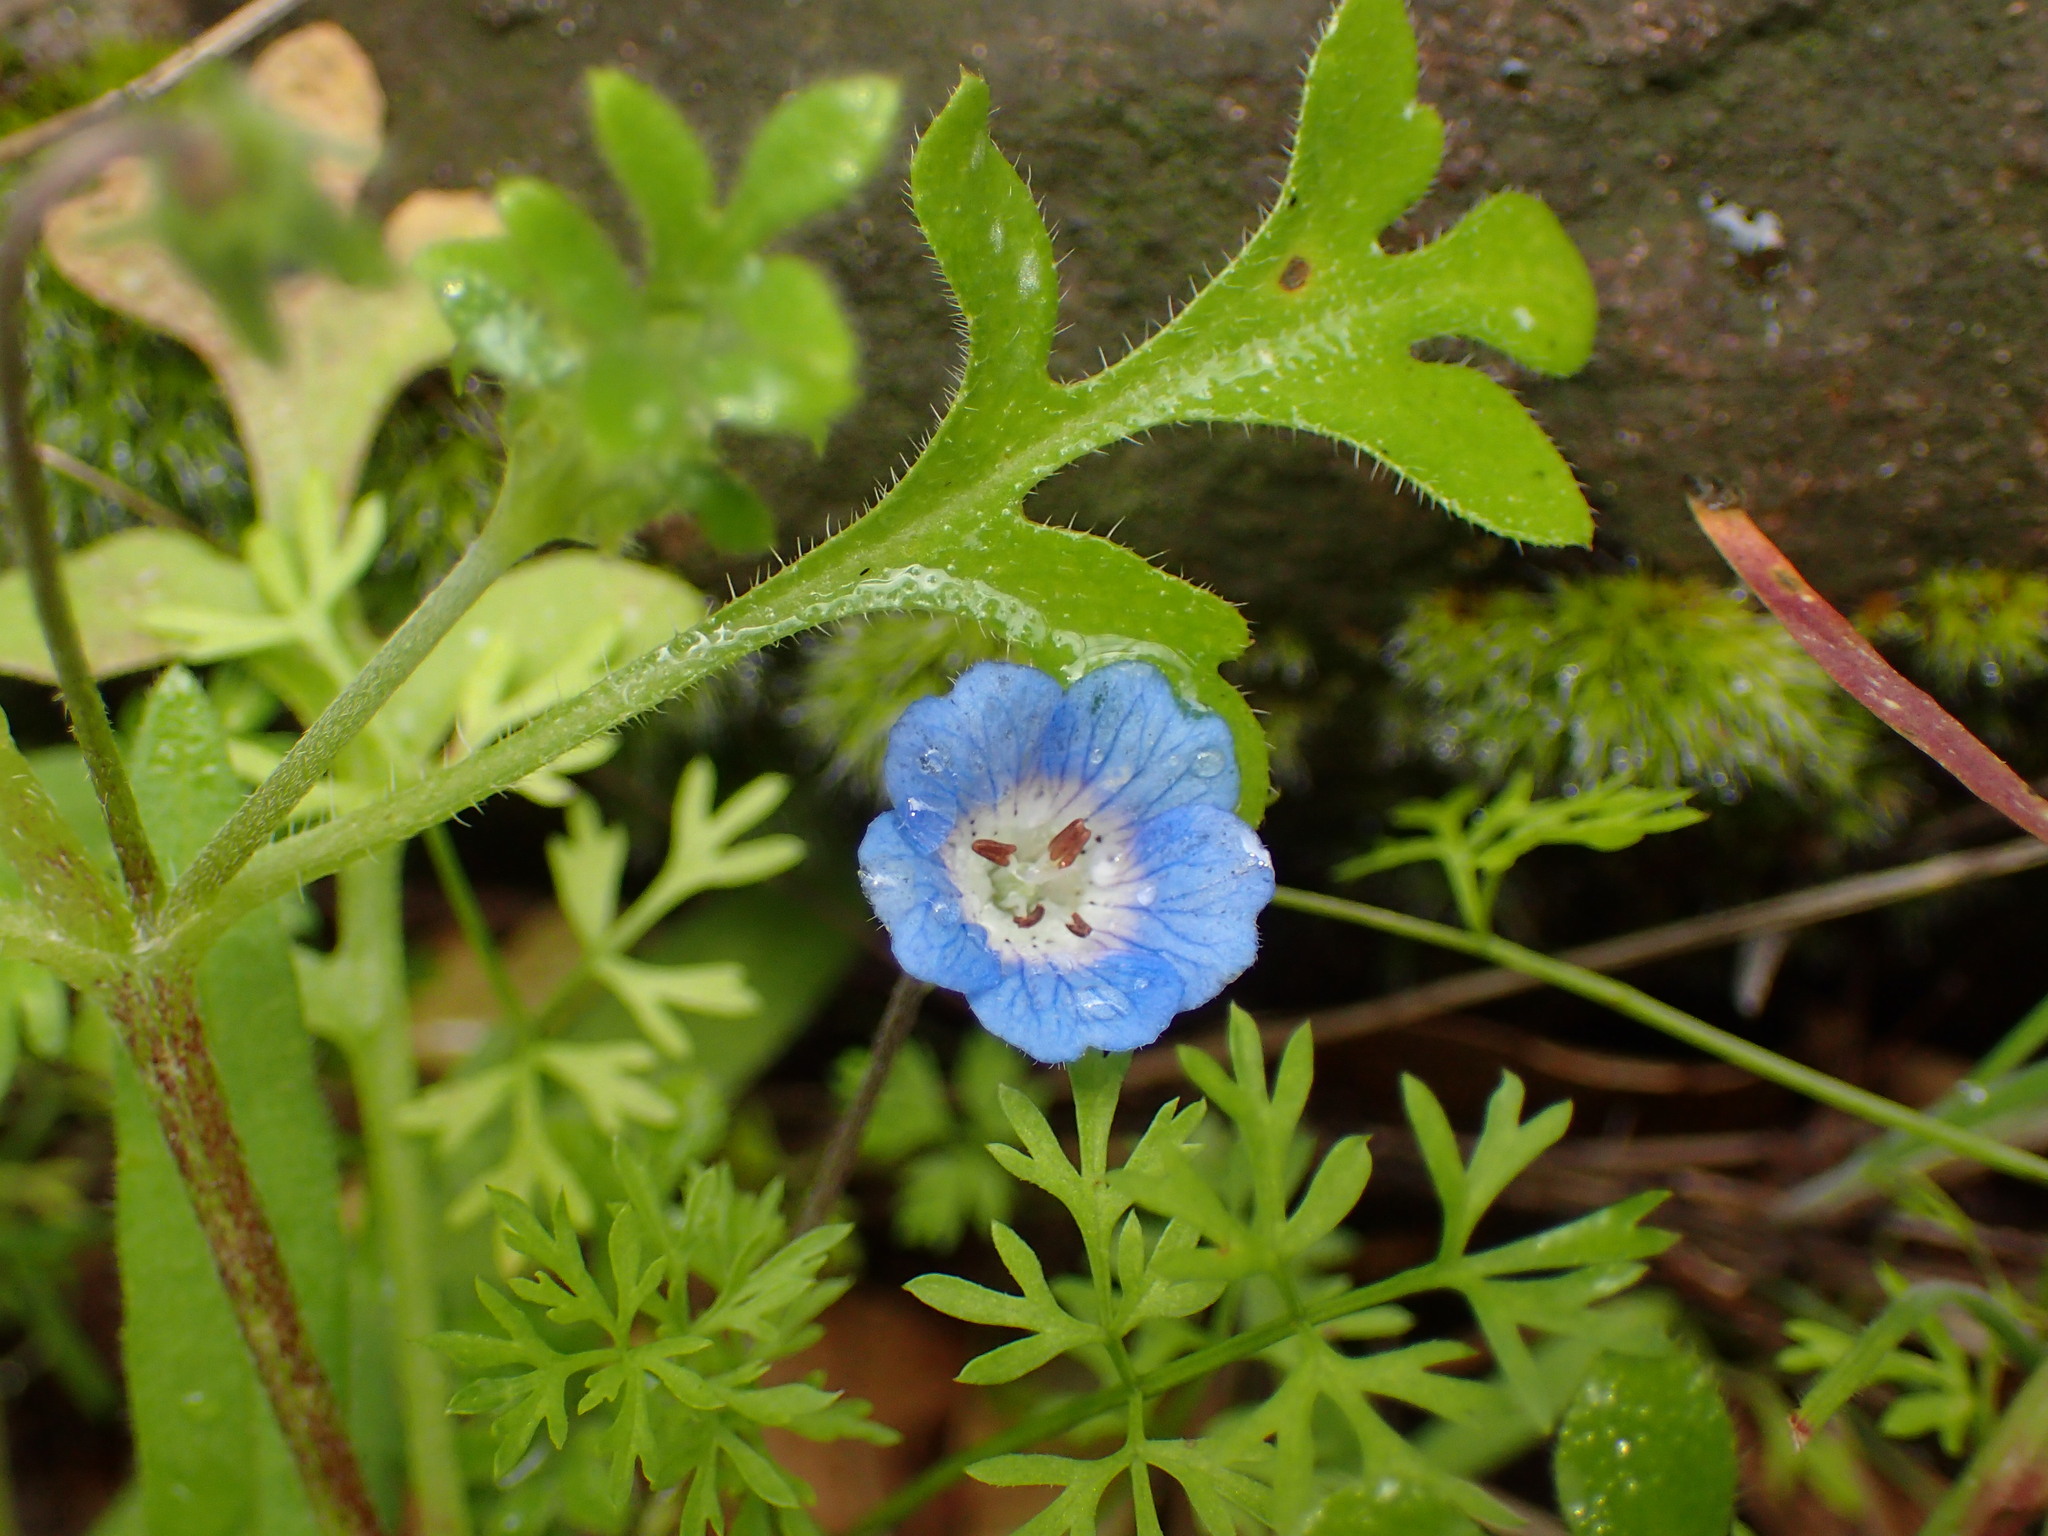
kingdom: Plantae
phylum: Tracheophyta
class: Magnoliopsida
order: Boraginales
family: Hydrophyllaceae
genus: Nemophila
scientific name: Nemophila menziesii
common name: Baby's-blue-eyes
